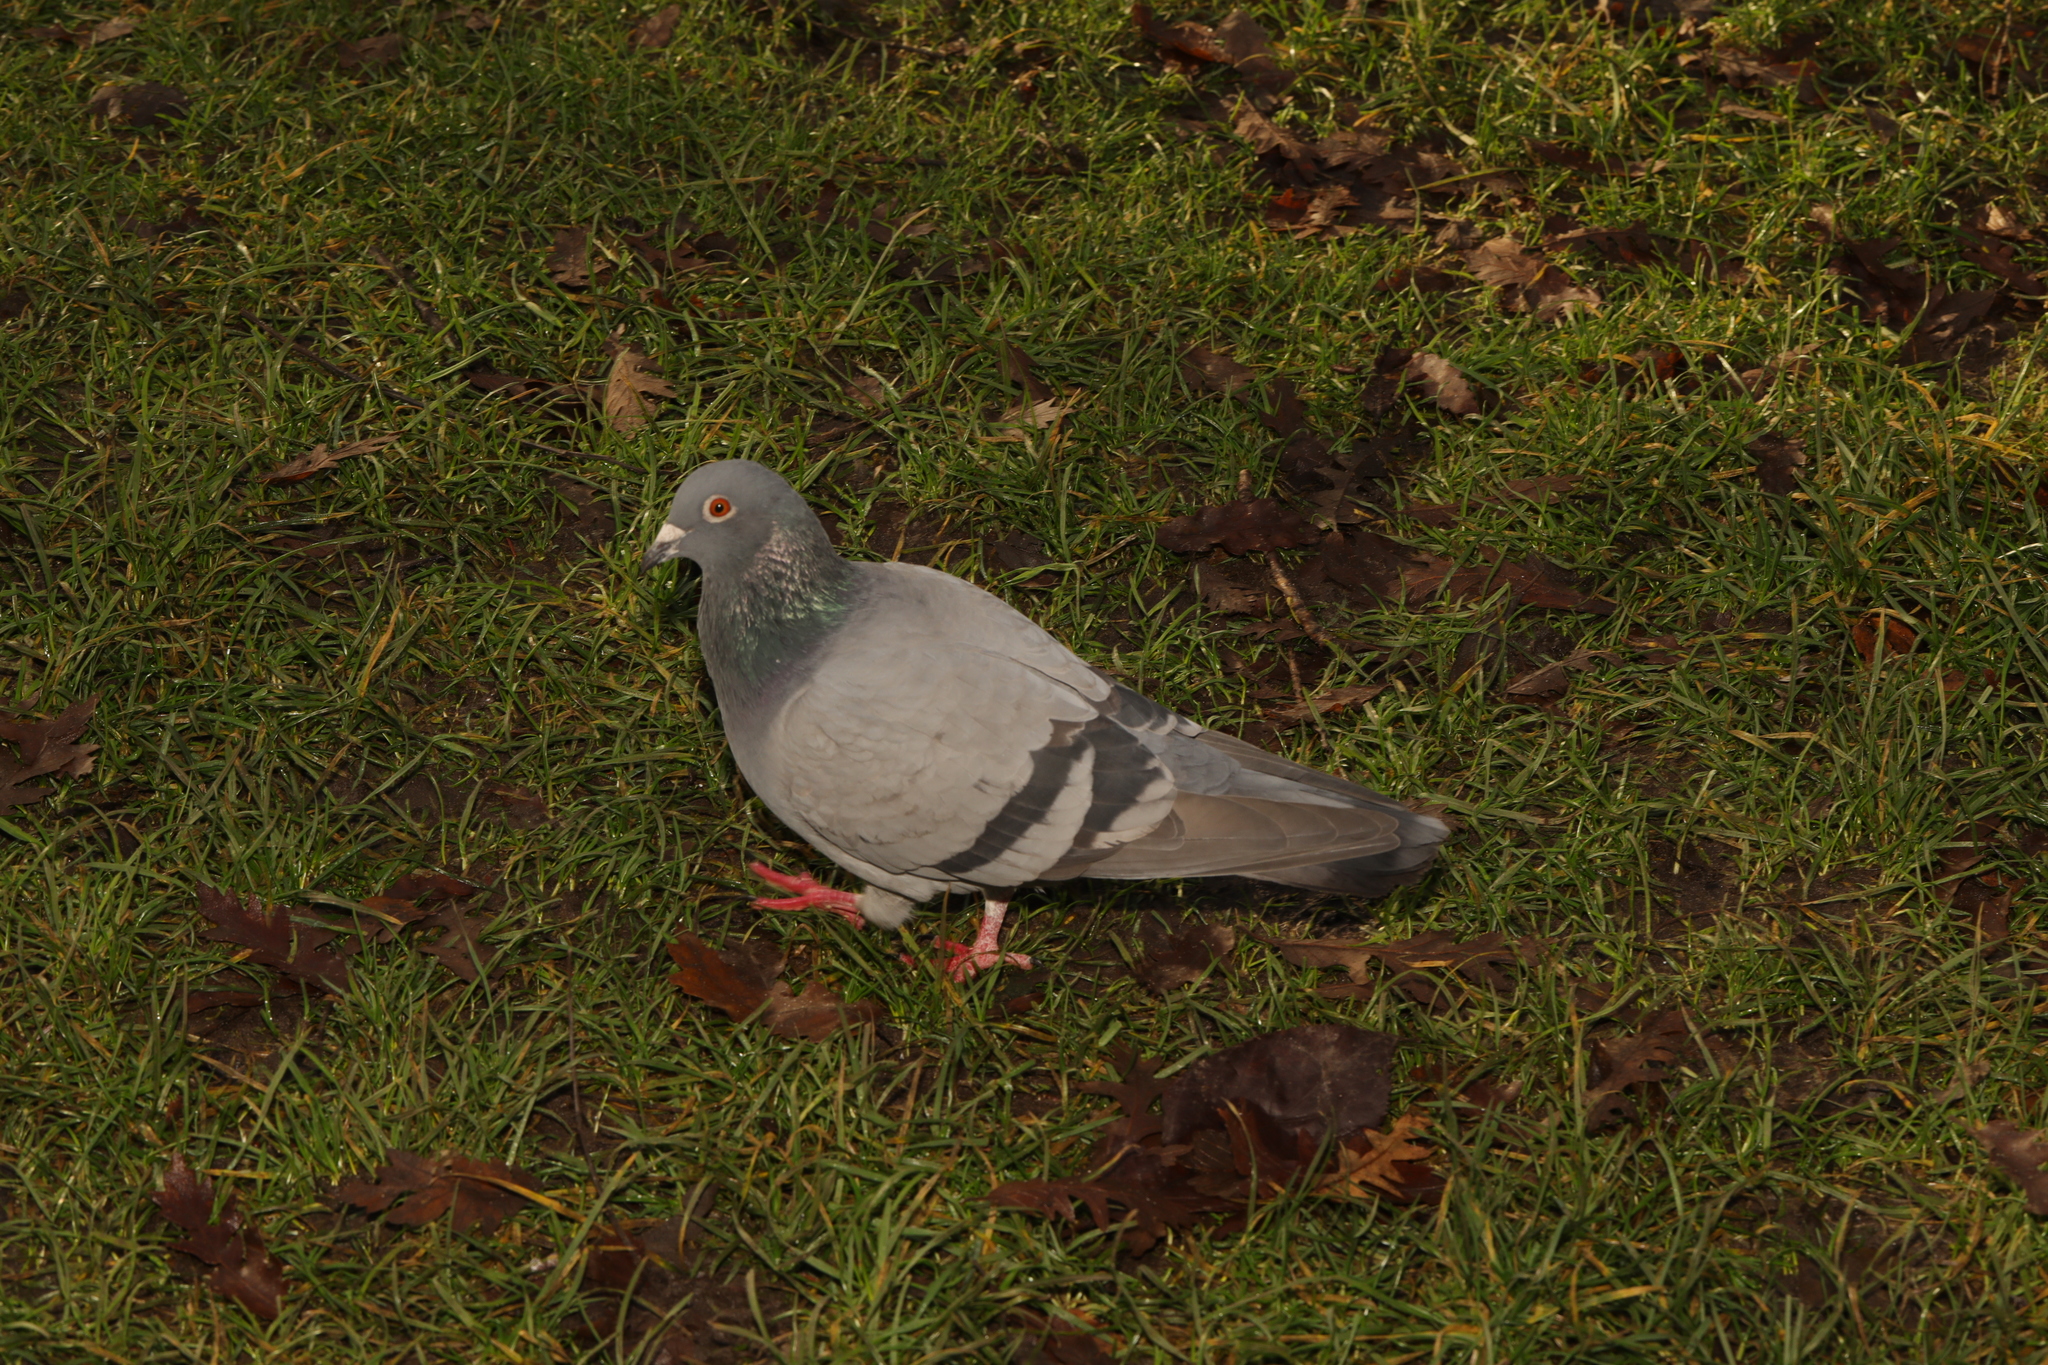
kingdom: Animalia
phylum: Chordata
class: Aves
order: Columbiformes
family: Columbidae
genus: Columba
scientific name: Columba livia
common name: Rock pigeon
